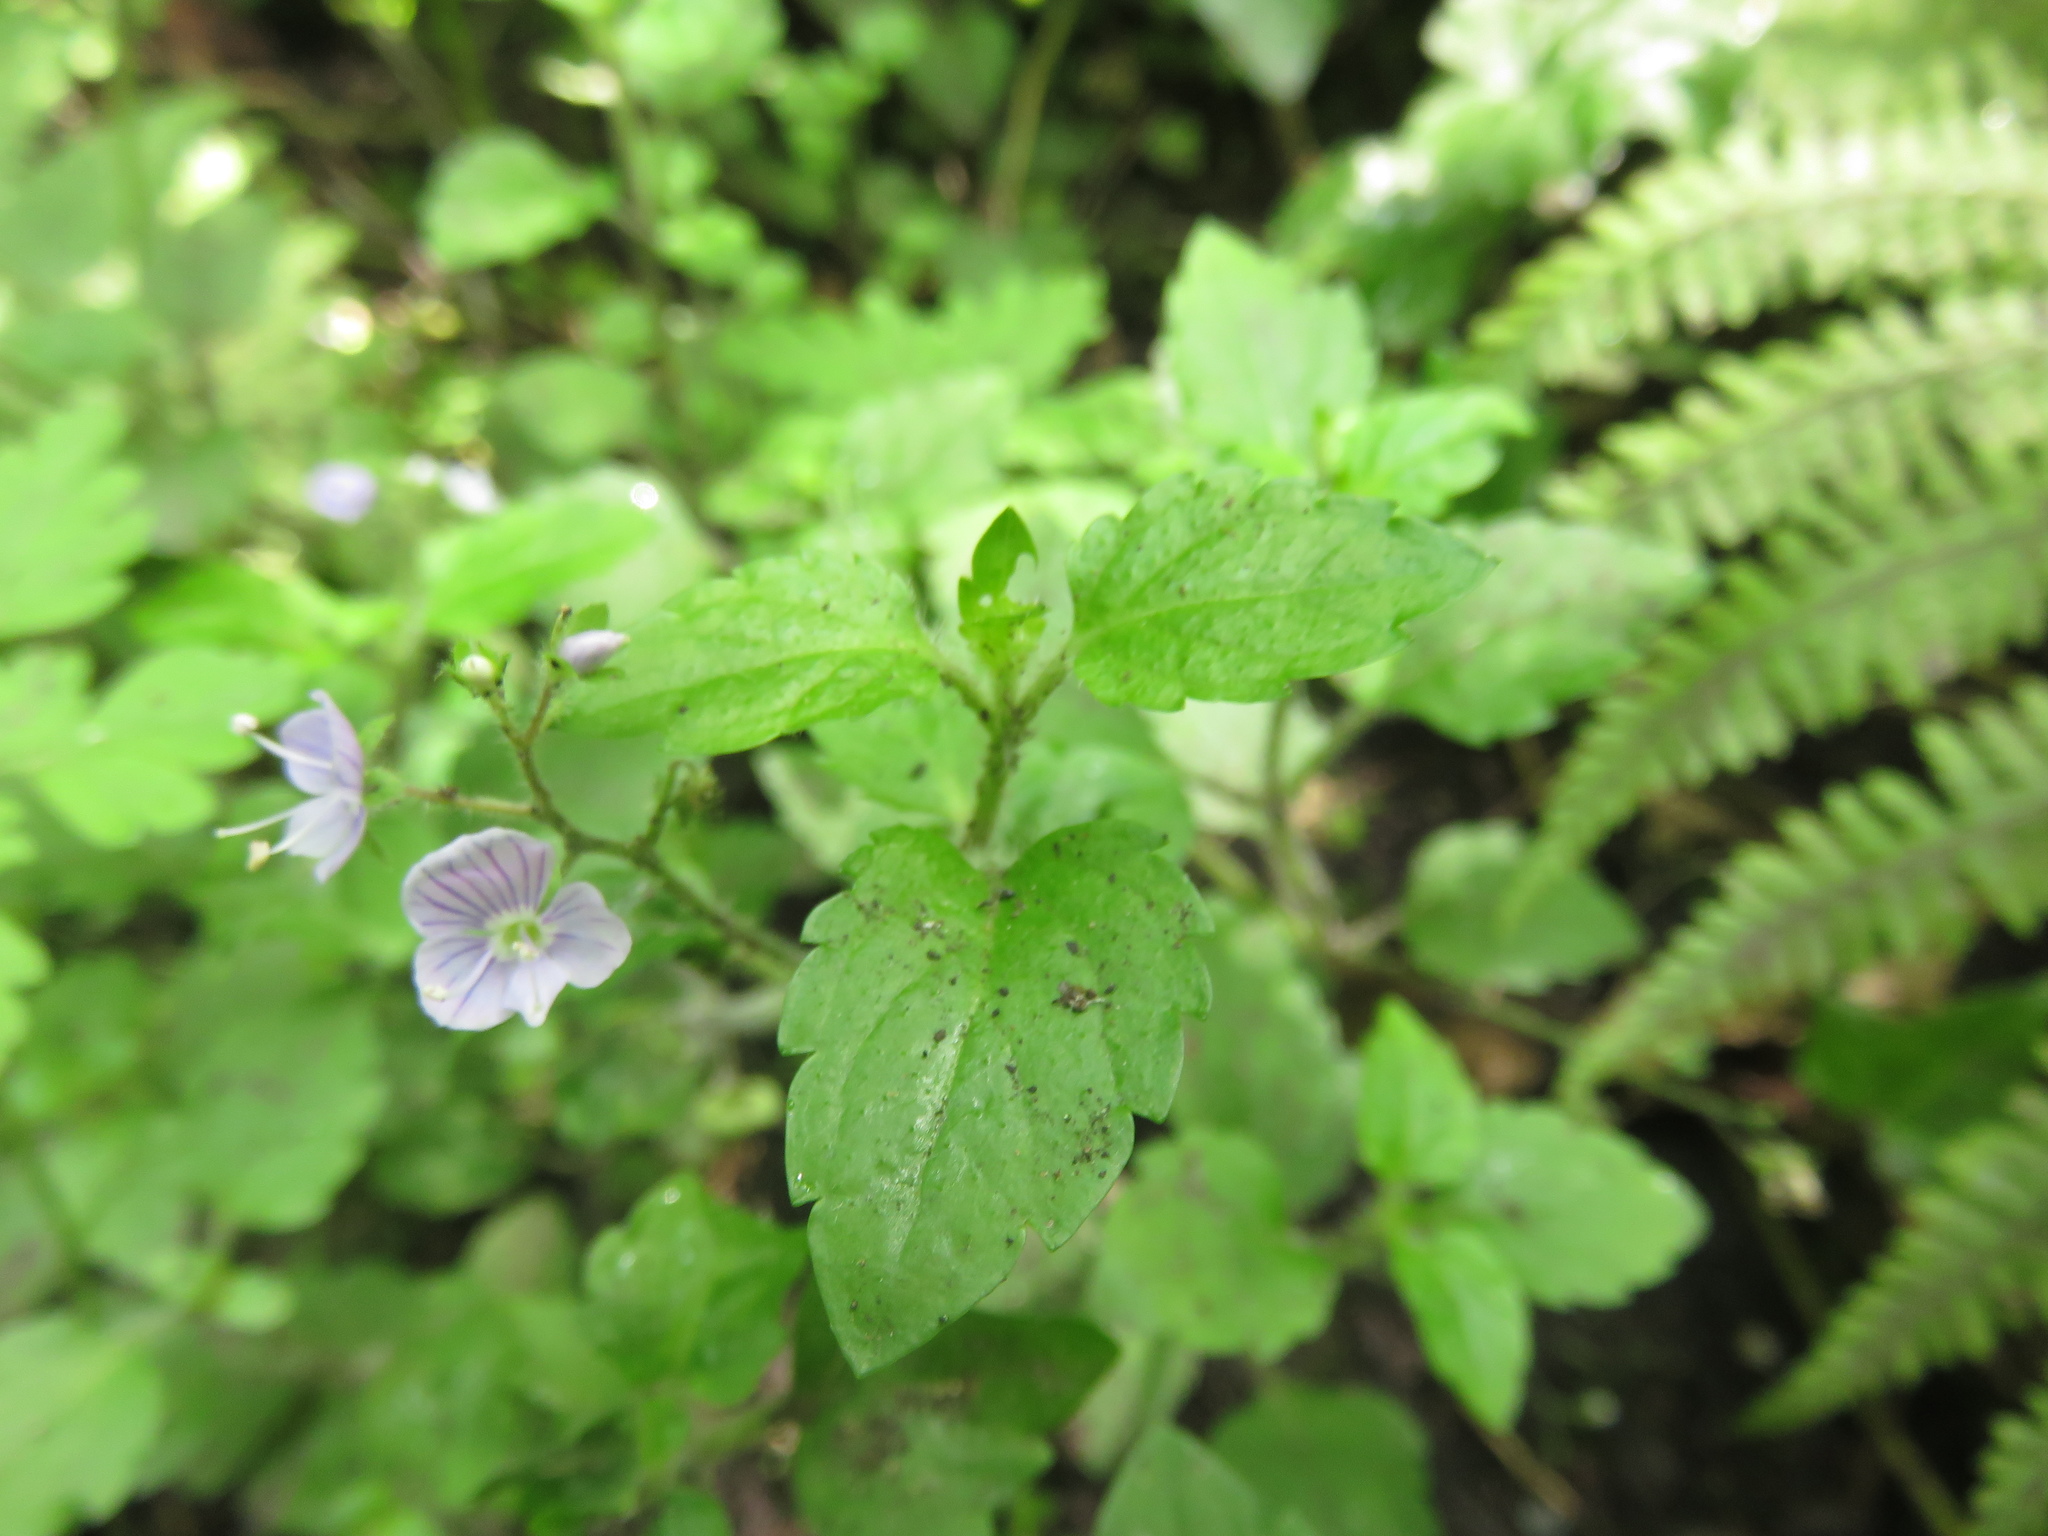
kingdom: Plantae
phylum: Tracheophyta
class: Magnoliopsida
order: Lamiales
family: Plantaginaceae
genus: Veronica
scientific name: Veronica montana
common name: Wood speedwell
